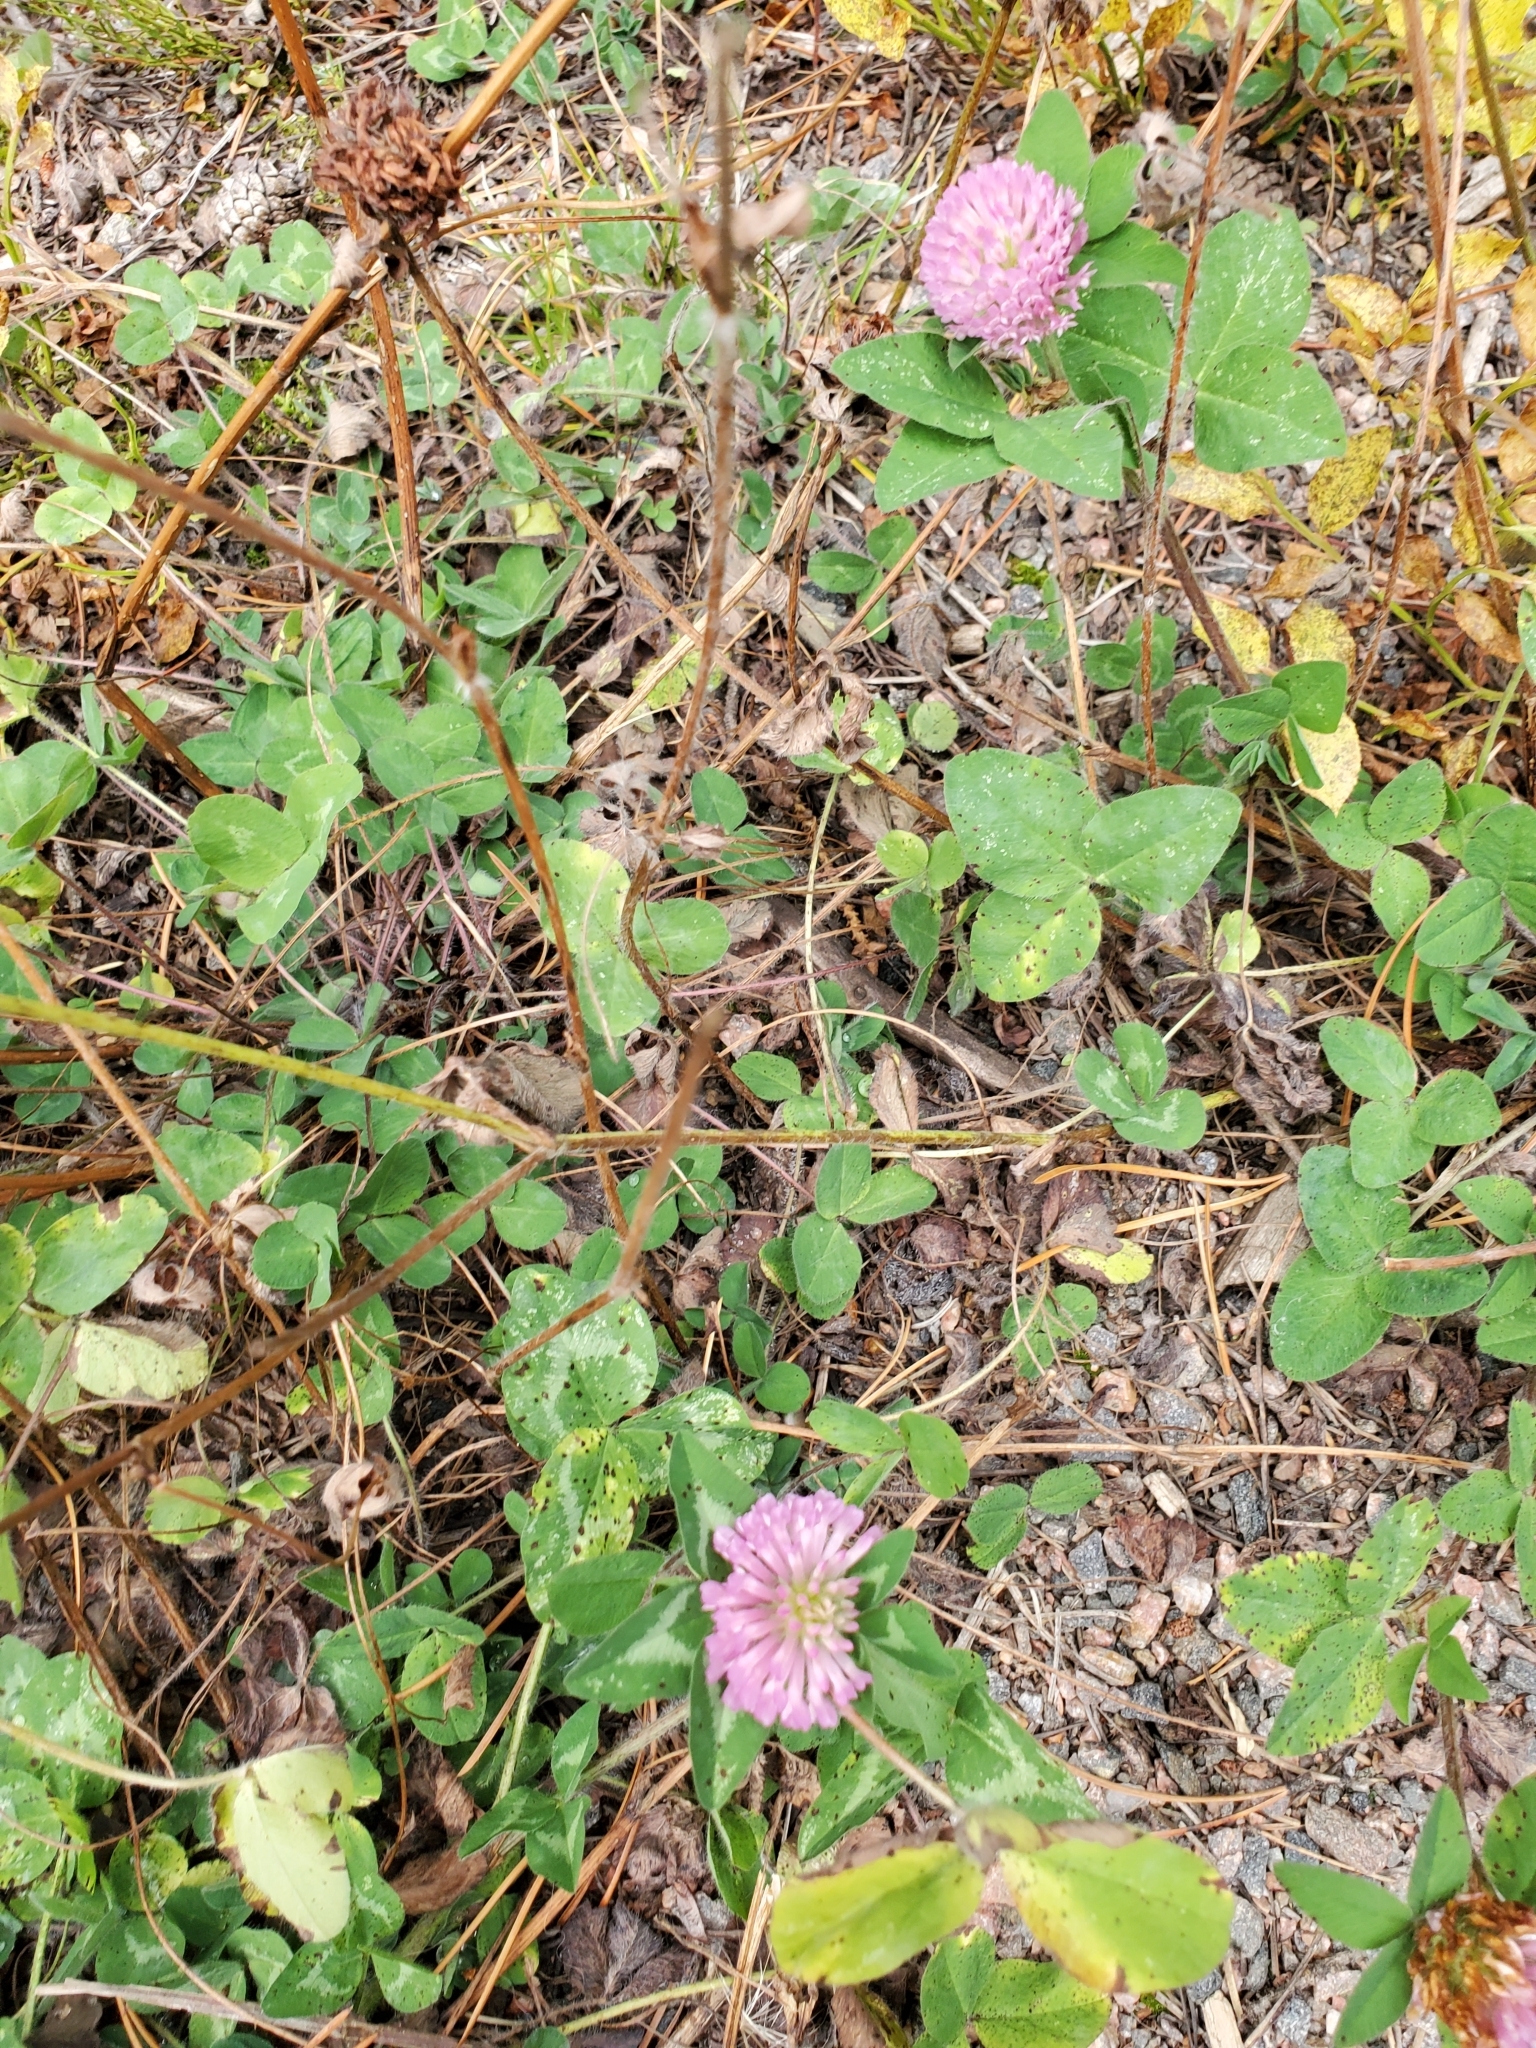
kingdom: Plantae
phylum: Tracheophyta
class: Magnoliopsida
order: Fabales
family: Fabaceae
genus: Trifolium
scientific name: Trifolium pratense
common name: Red clover
